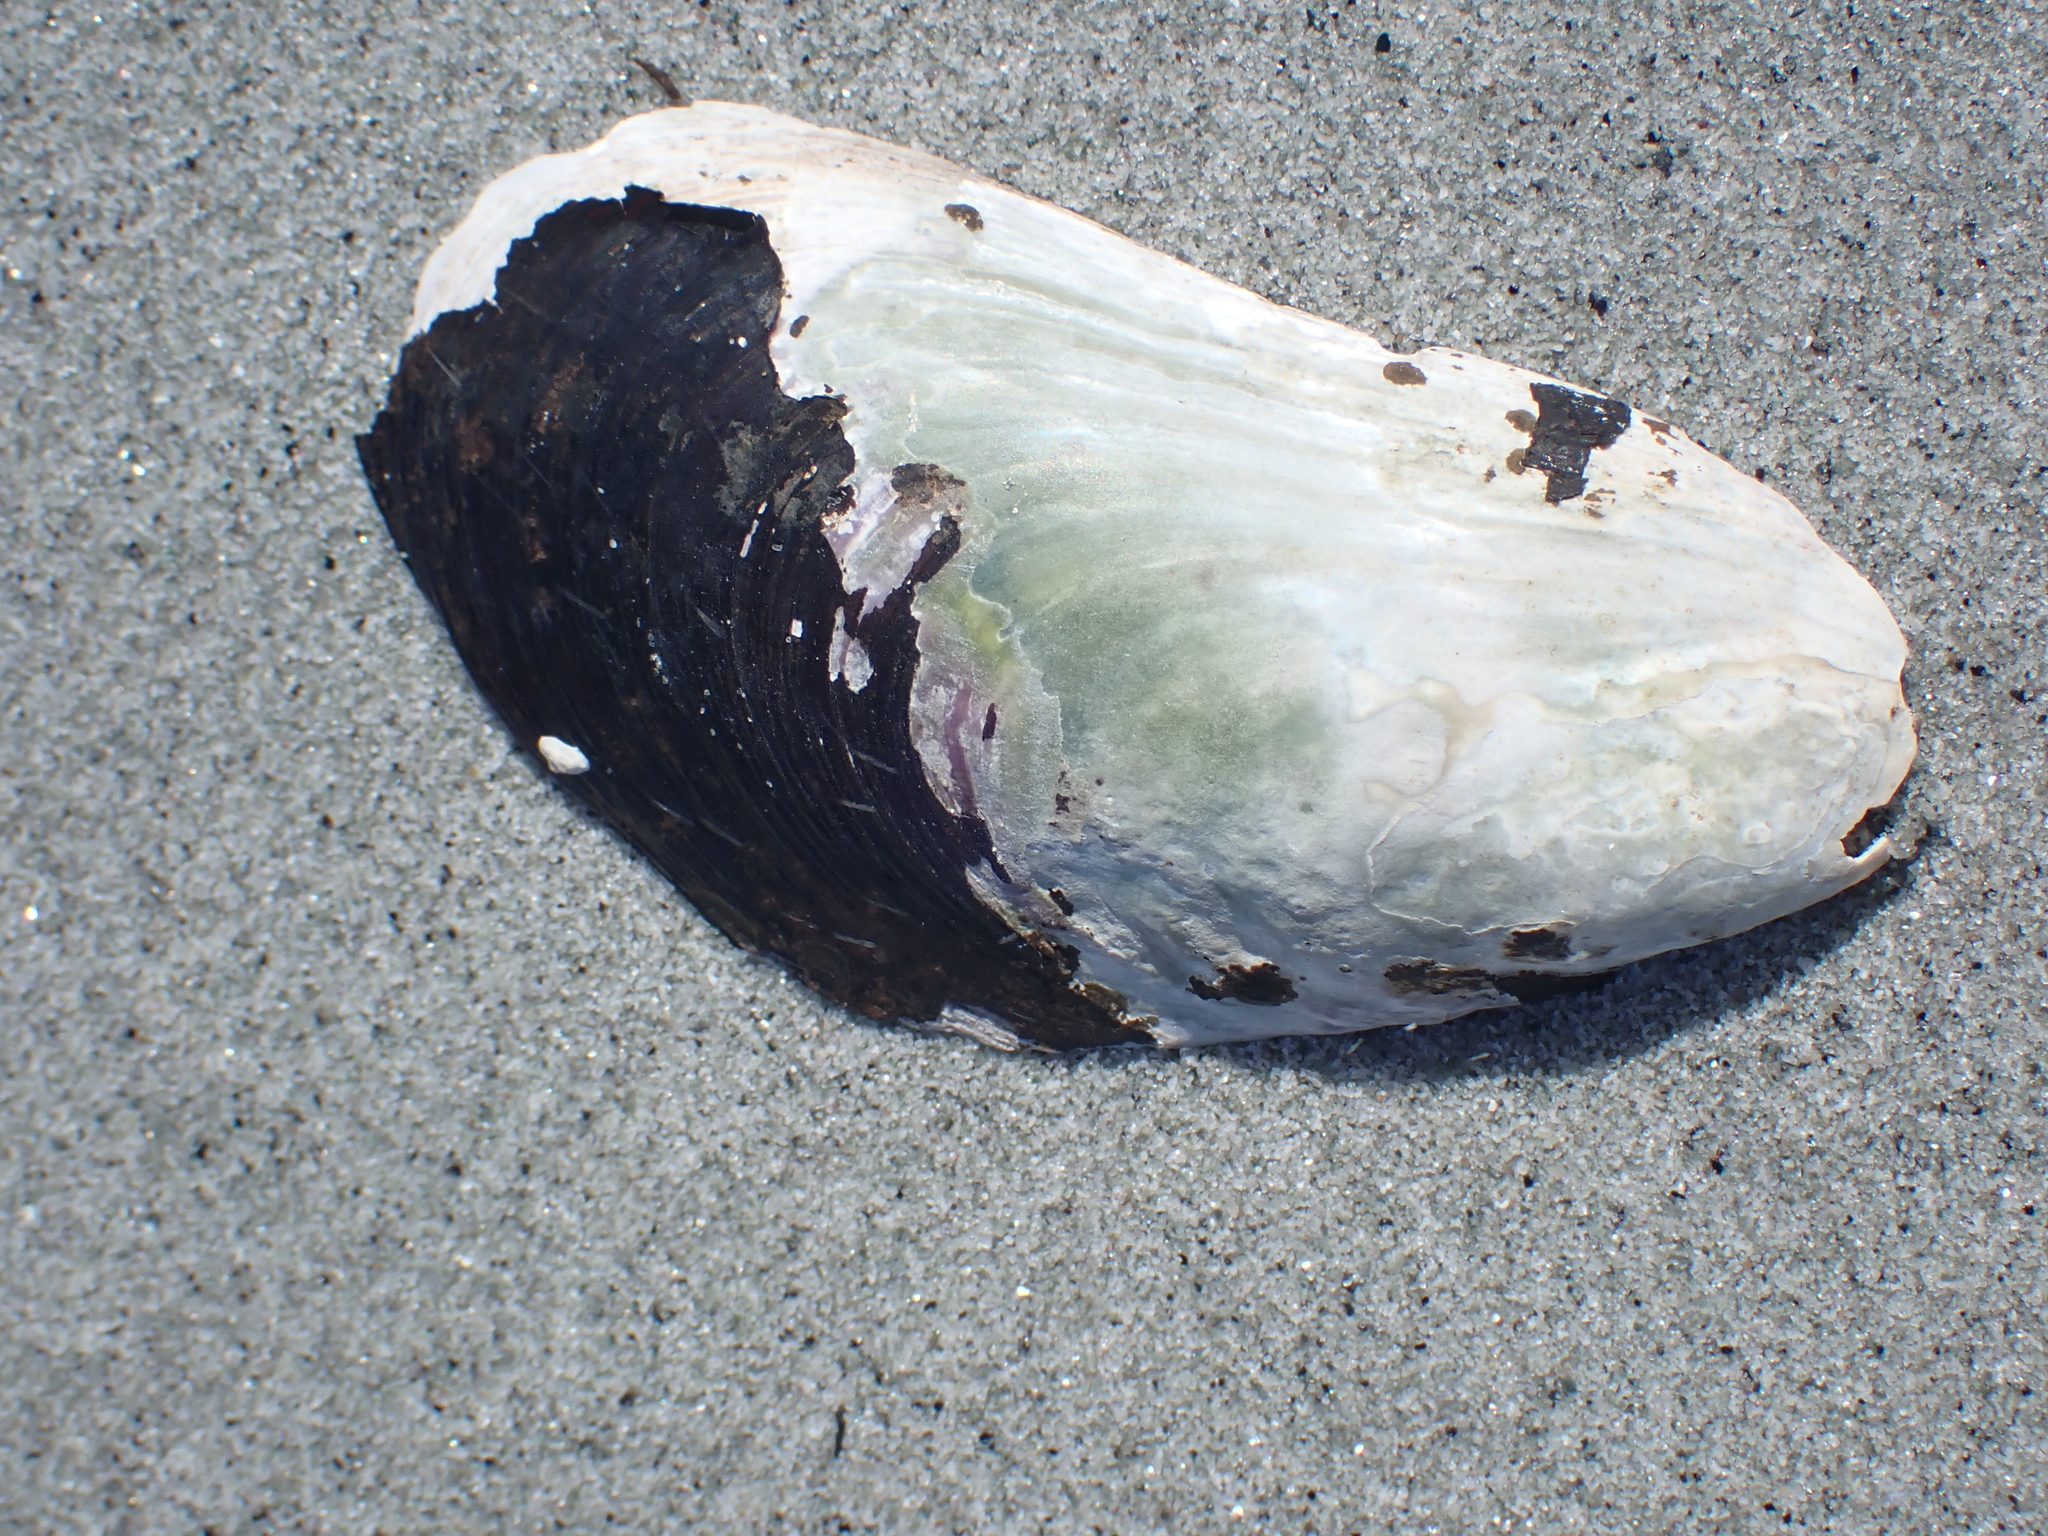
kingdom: Animalia
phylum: Mollusca
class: Bivalvia
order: Mytilida
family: Mytilidae
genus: Modiolus
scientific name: Modiolus modiolus
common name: Horse-mussel
